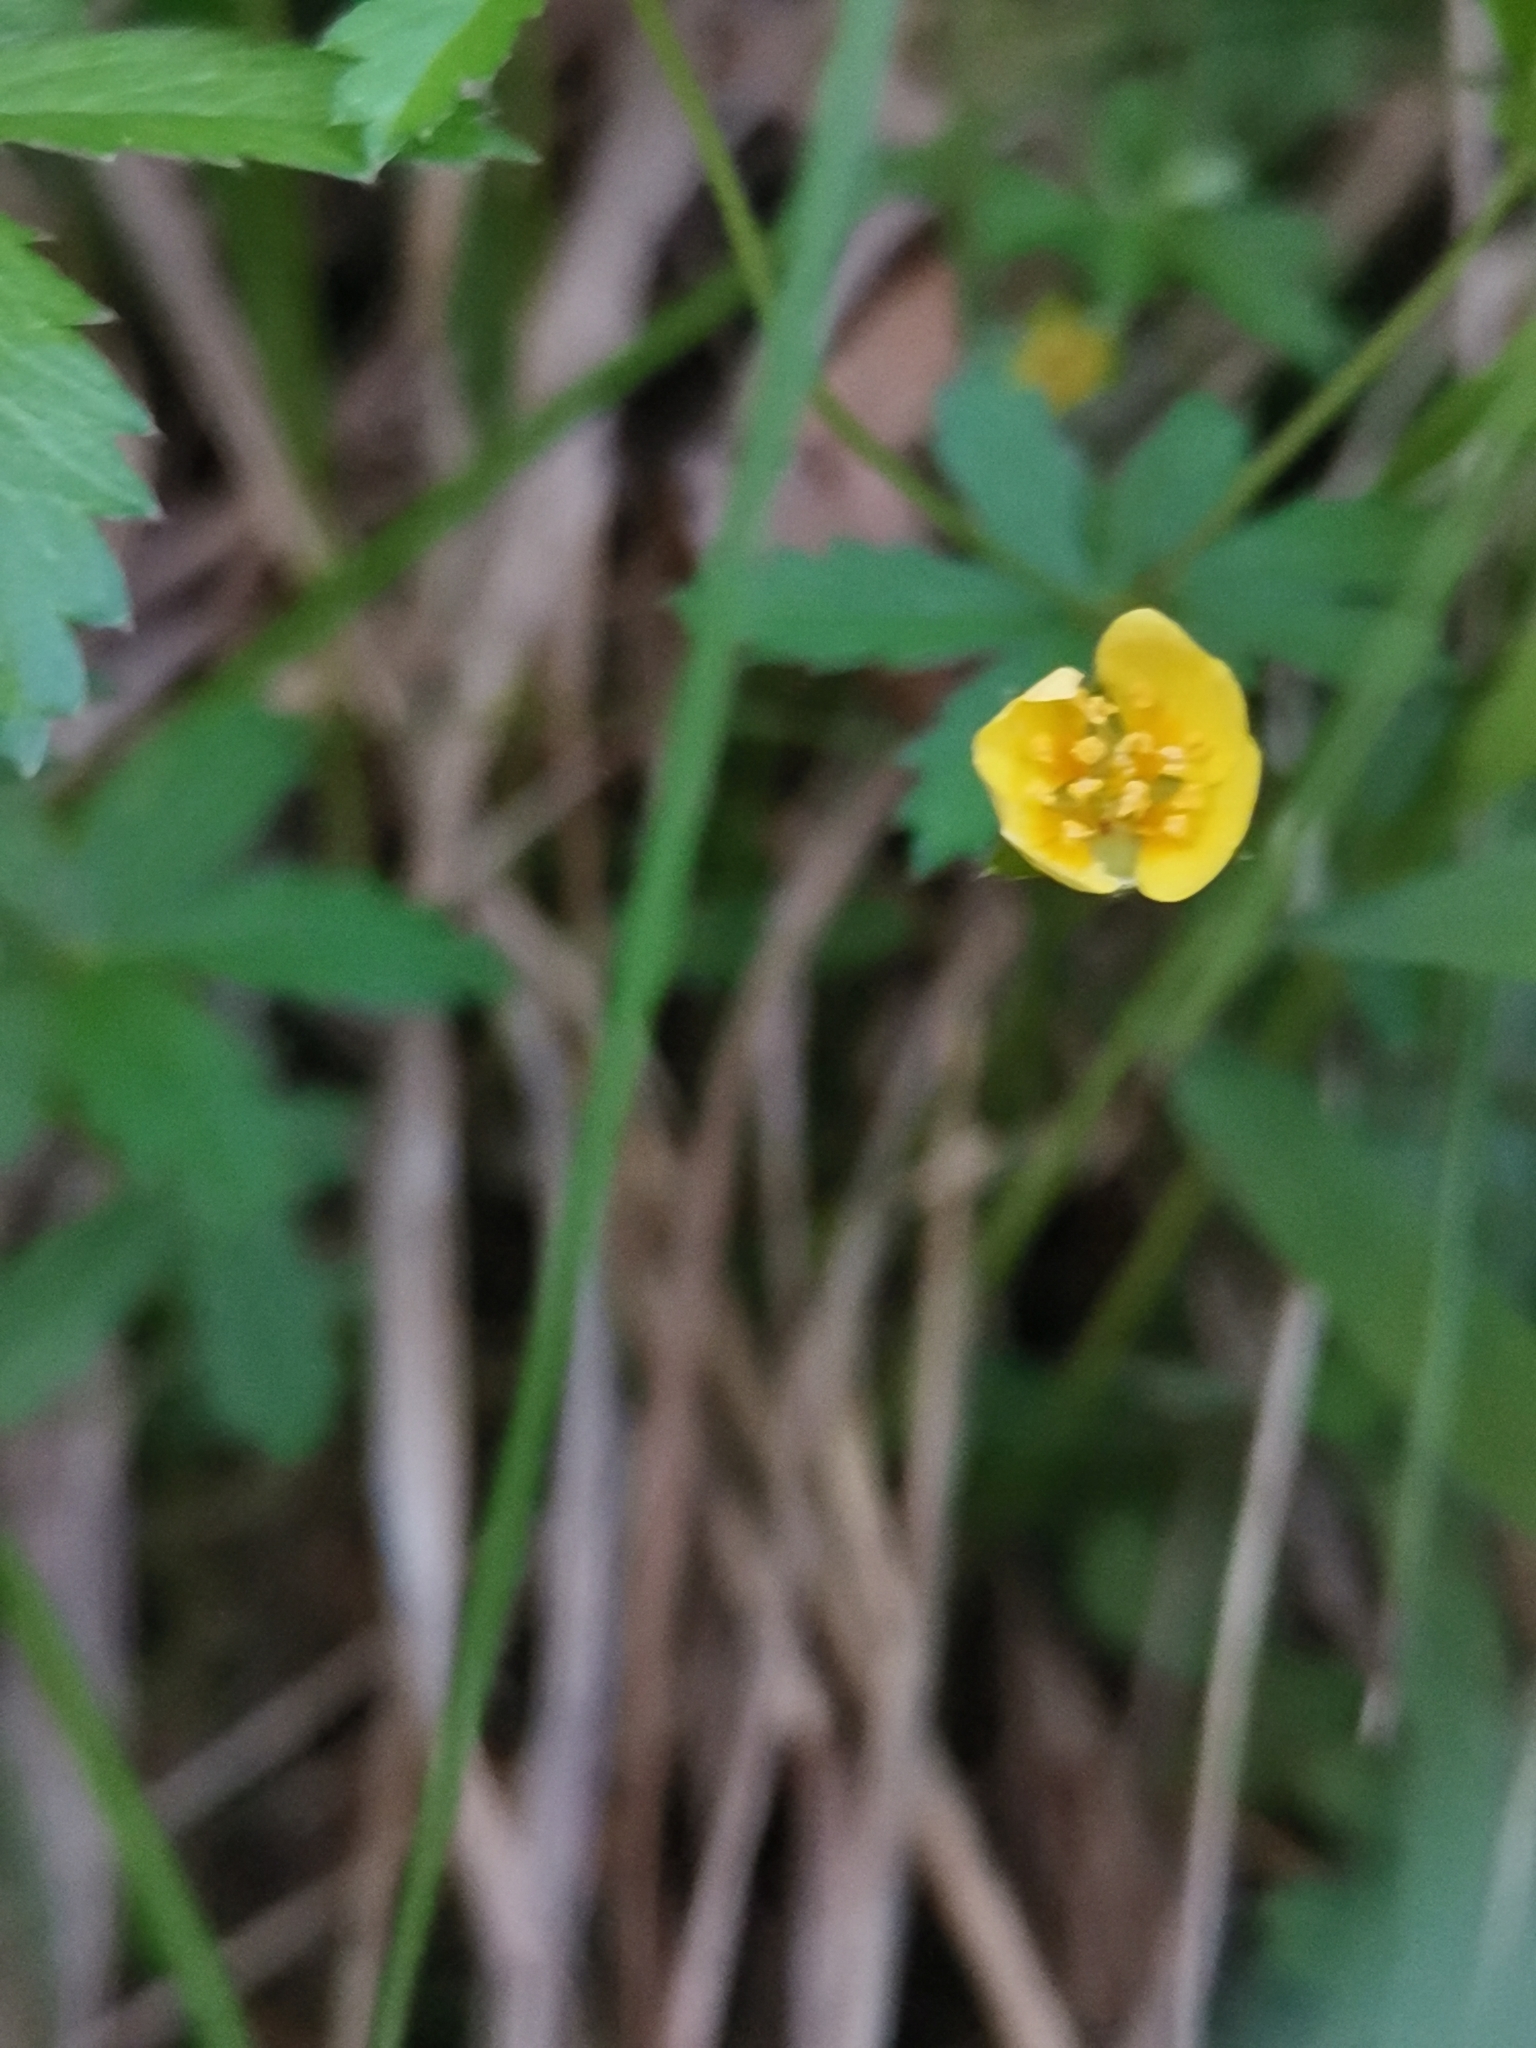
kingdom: Plantae
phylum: Tracheophyta
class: Magnoliopsida
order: Rosales
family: Rosaceae
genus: Potentilla
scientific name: Potentilla erecta
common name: Tormentil
